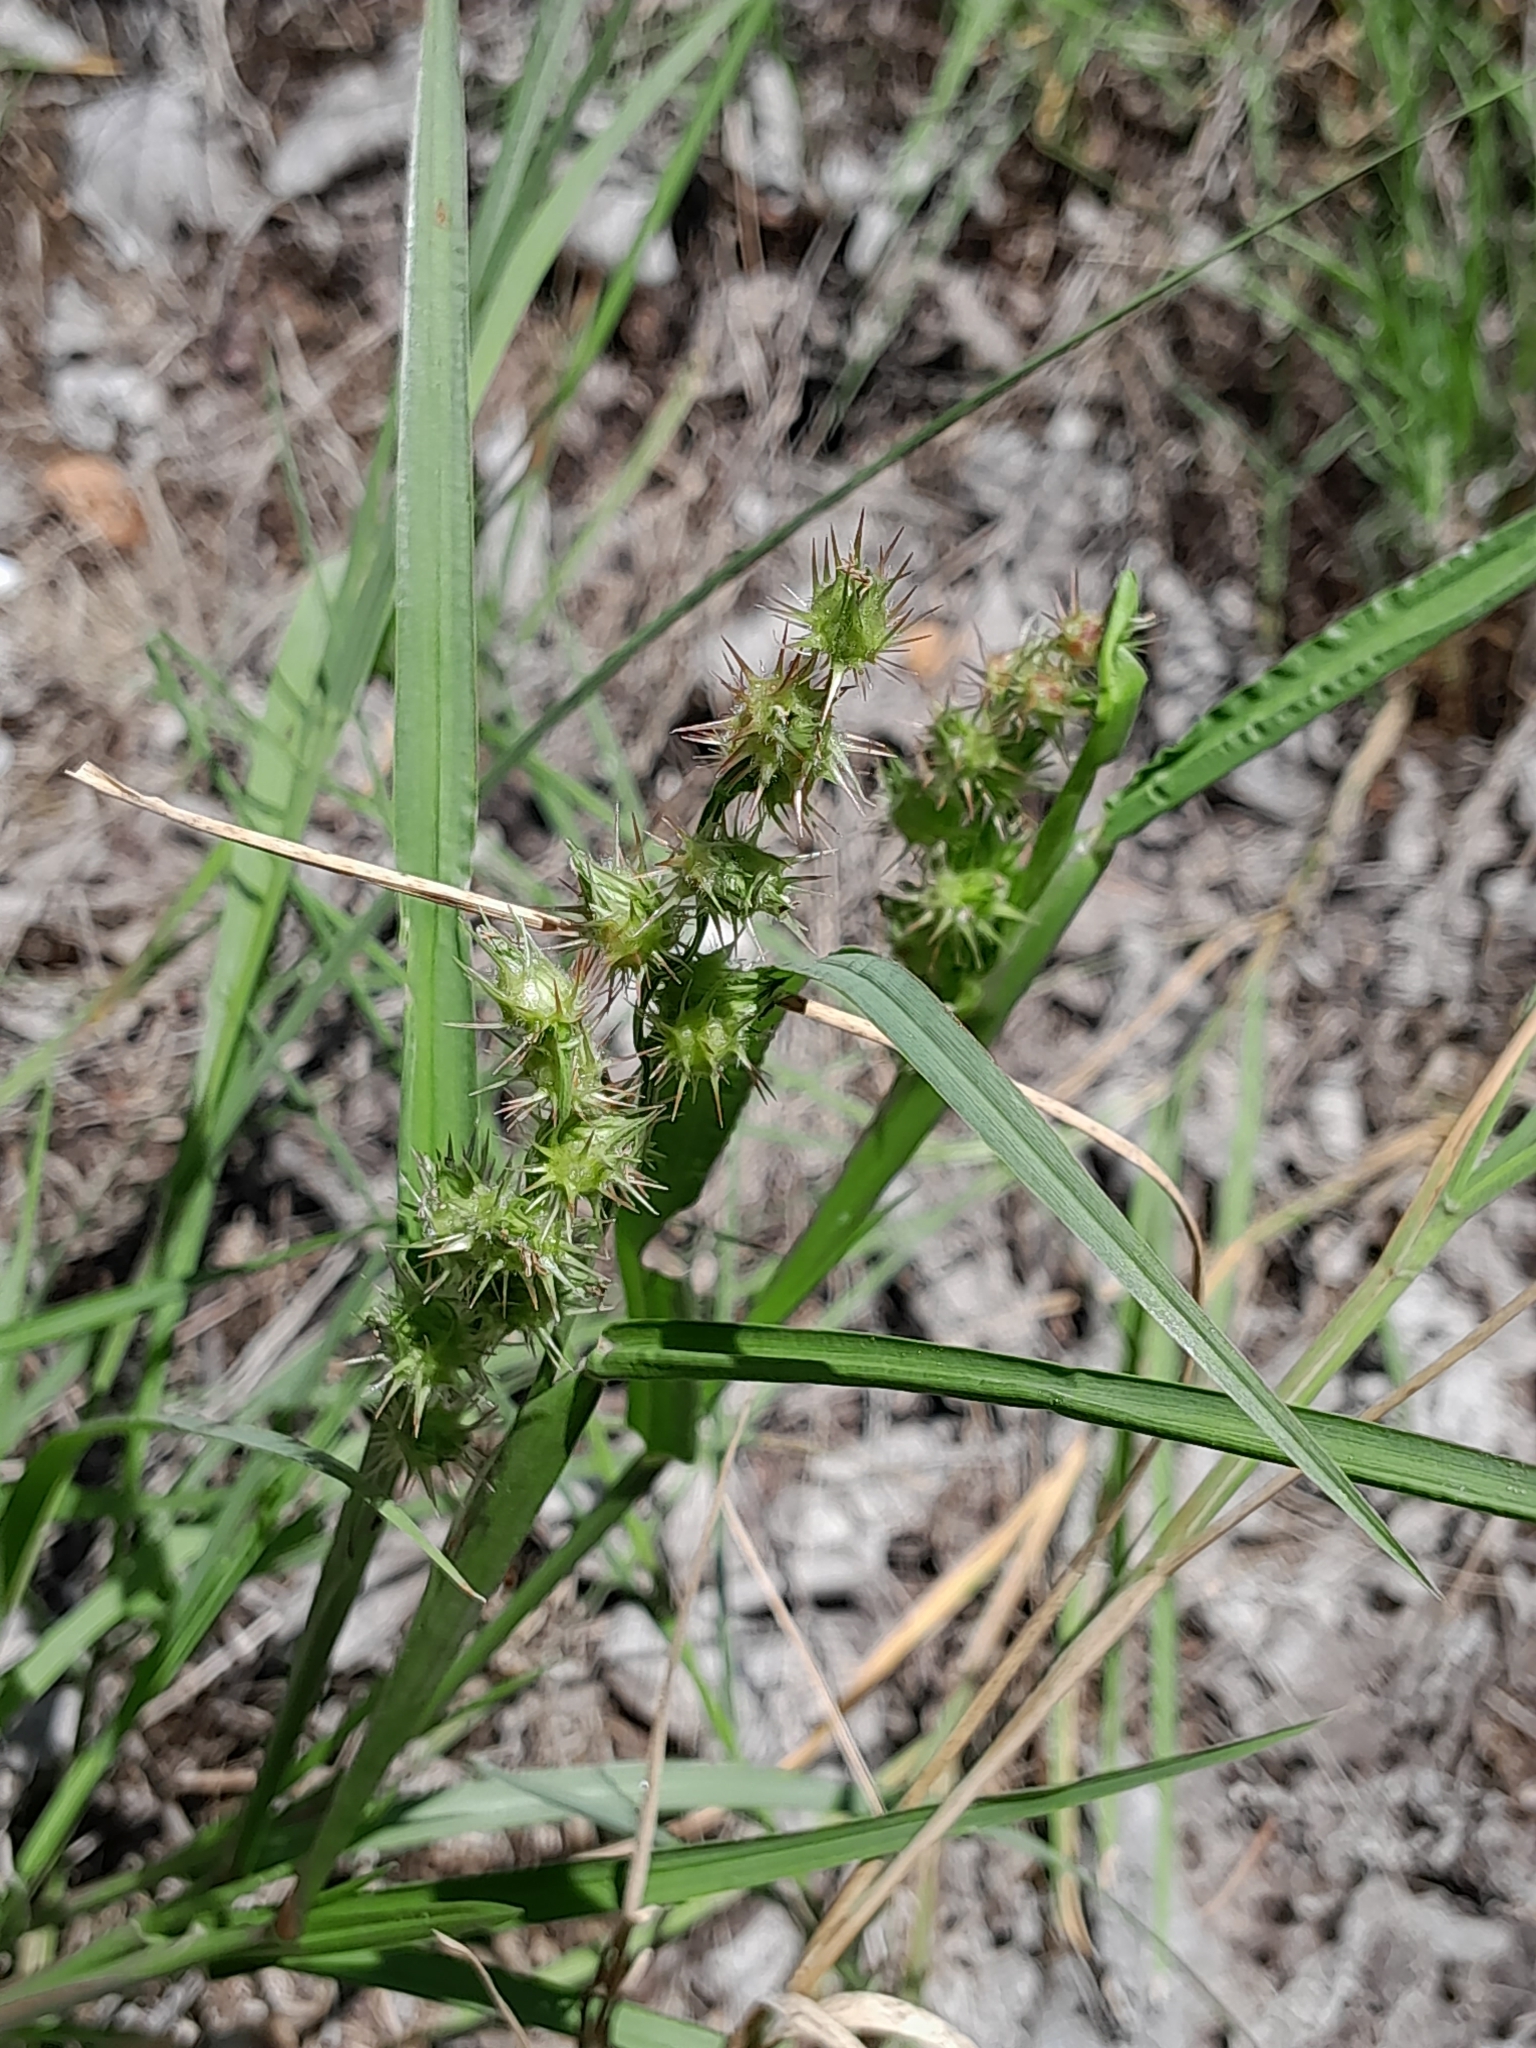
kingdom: Plantae
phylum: Tracheophyta
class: Liliopsida
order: Poales
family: Poaceae
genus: Cenchrus
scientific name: Cenchrus spinifex
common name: Coast sandbur
